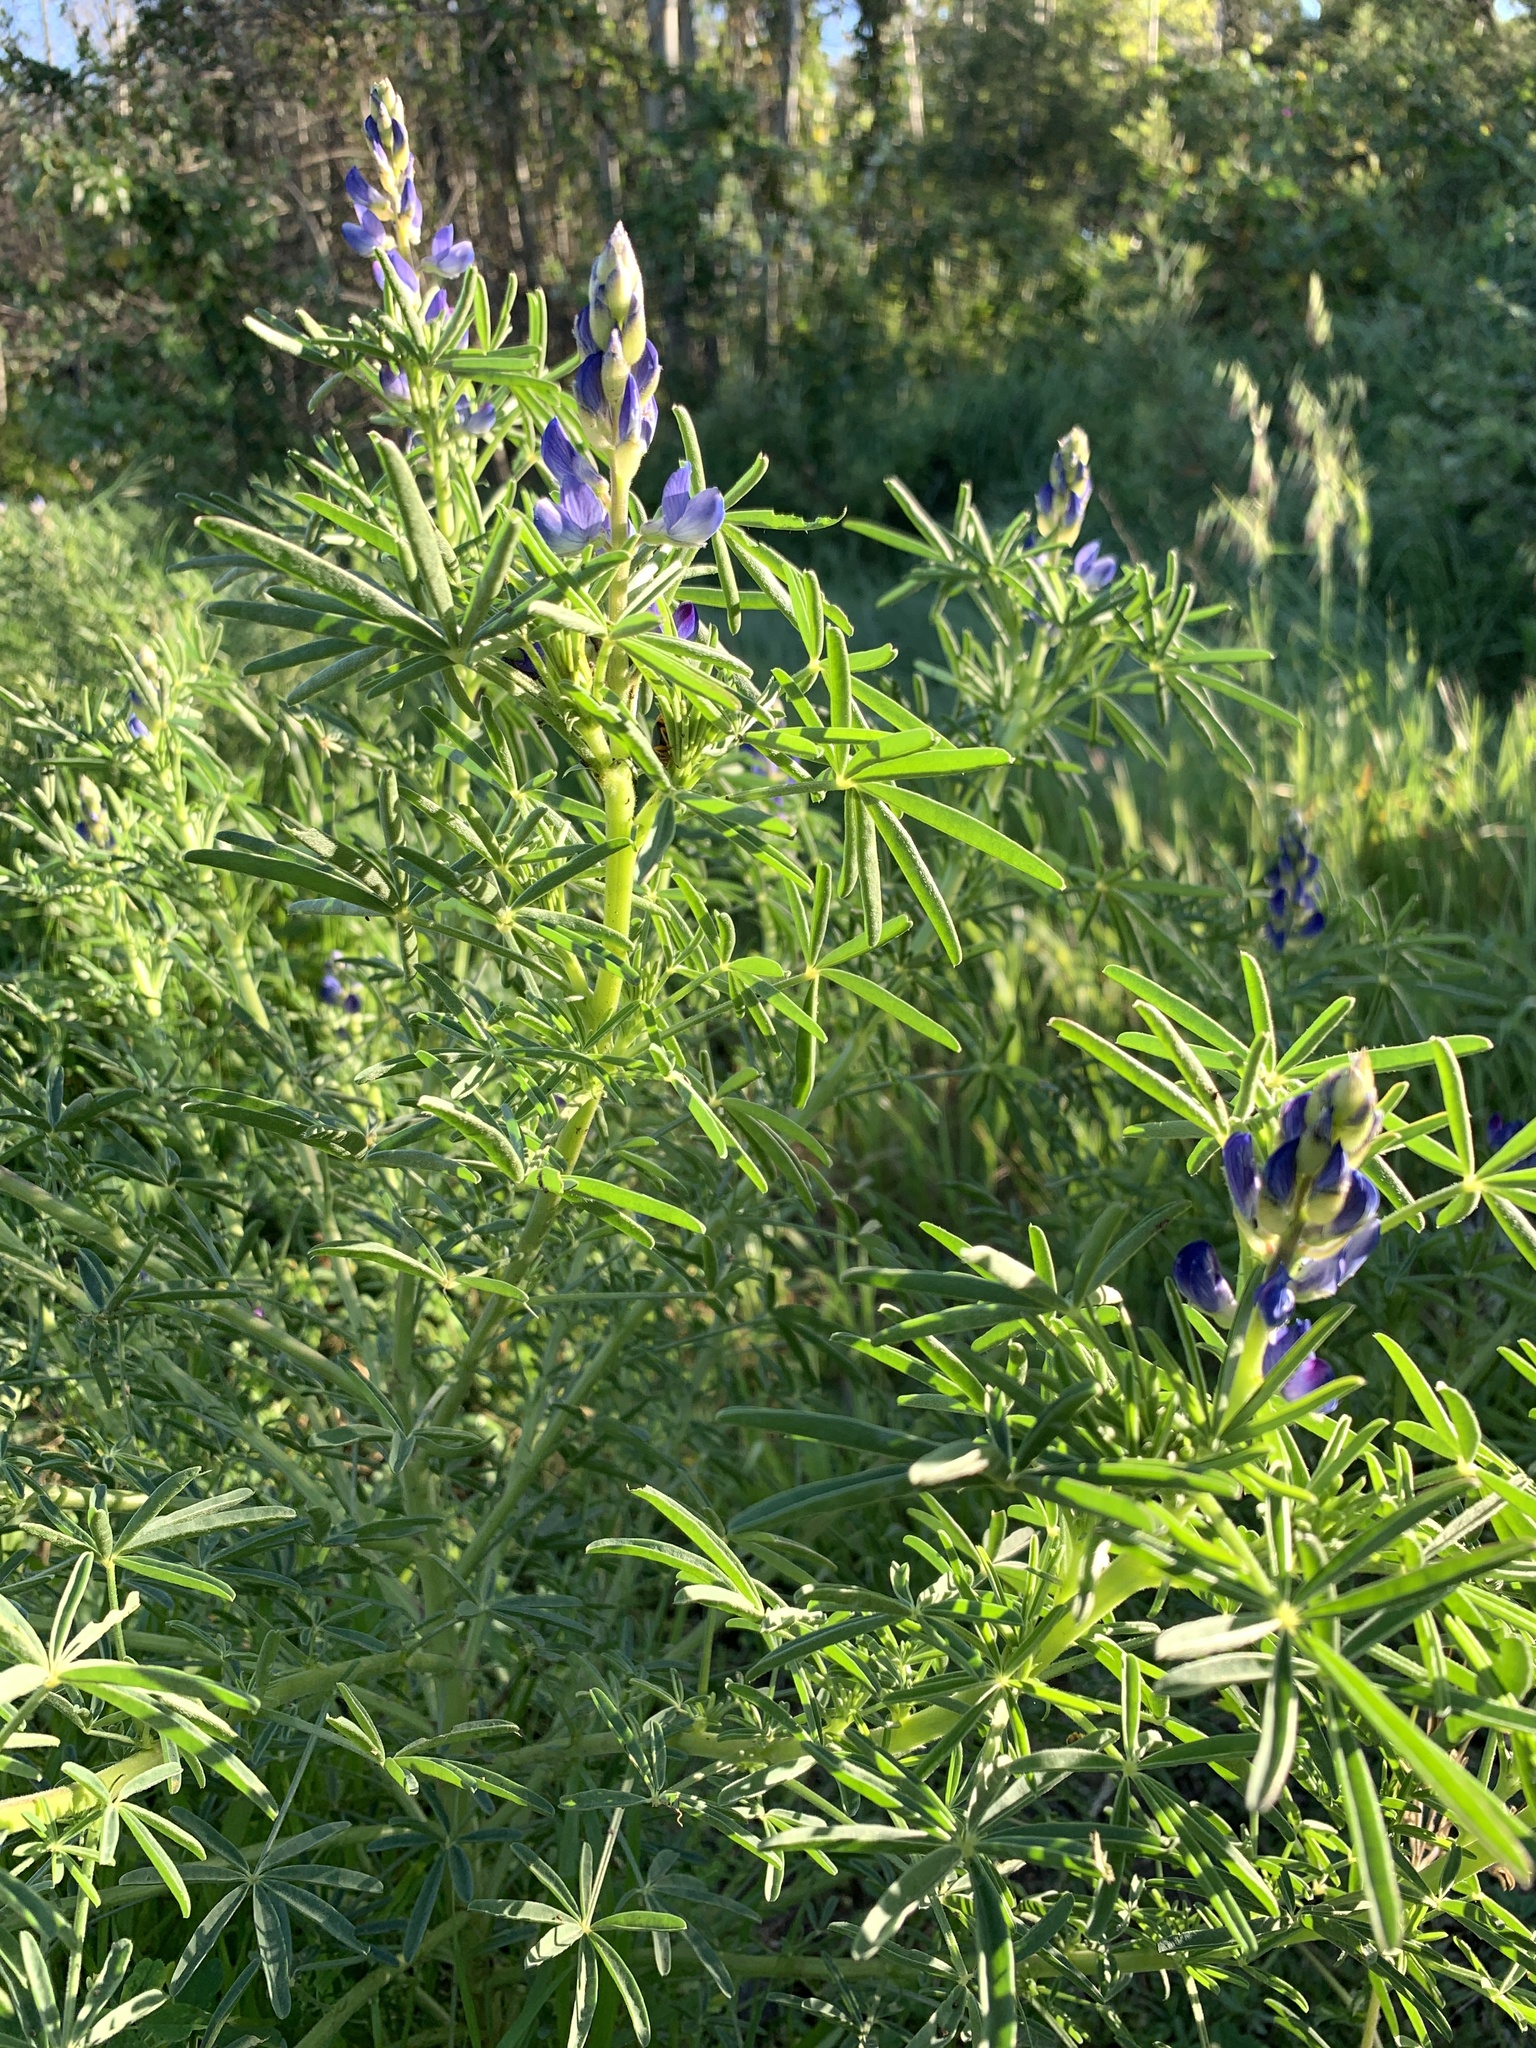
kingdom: Plantae
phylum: Tracheophyta
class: Magnoliopsida
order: Fabales
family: Fabaceae
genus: Lupinus
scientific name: Lupinus angustifolius
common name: Narrow-leaved lupin
